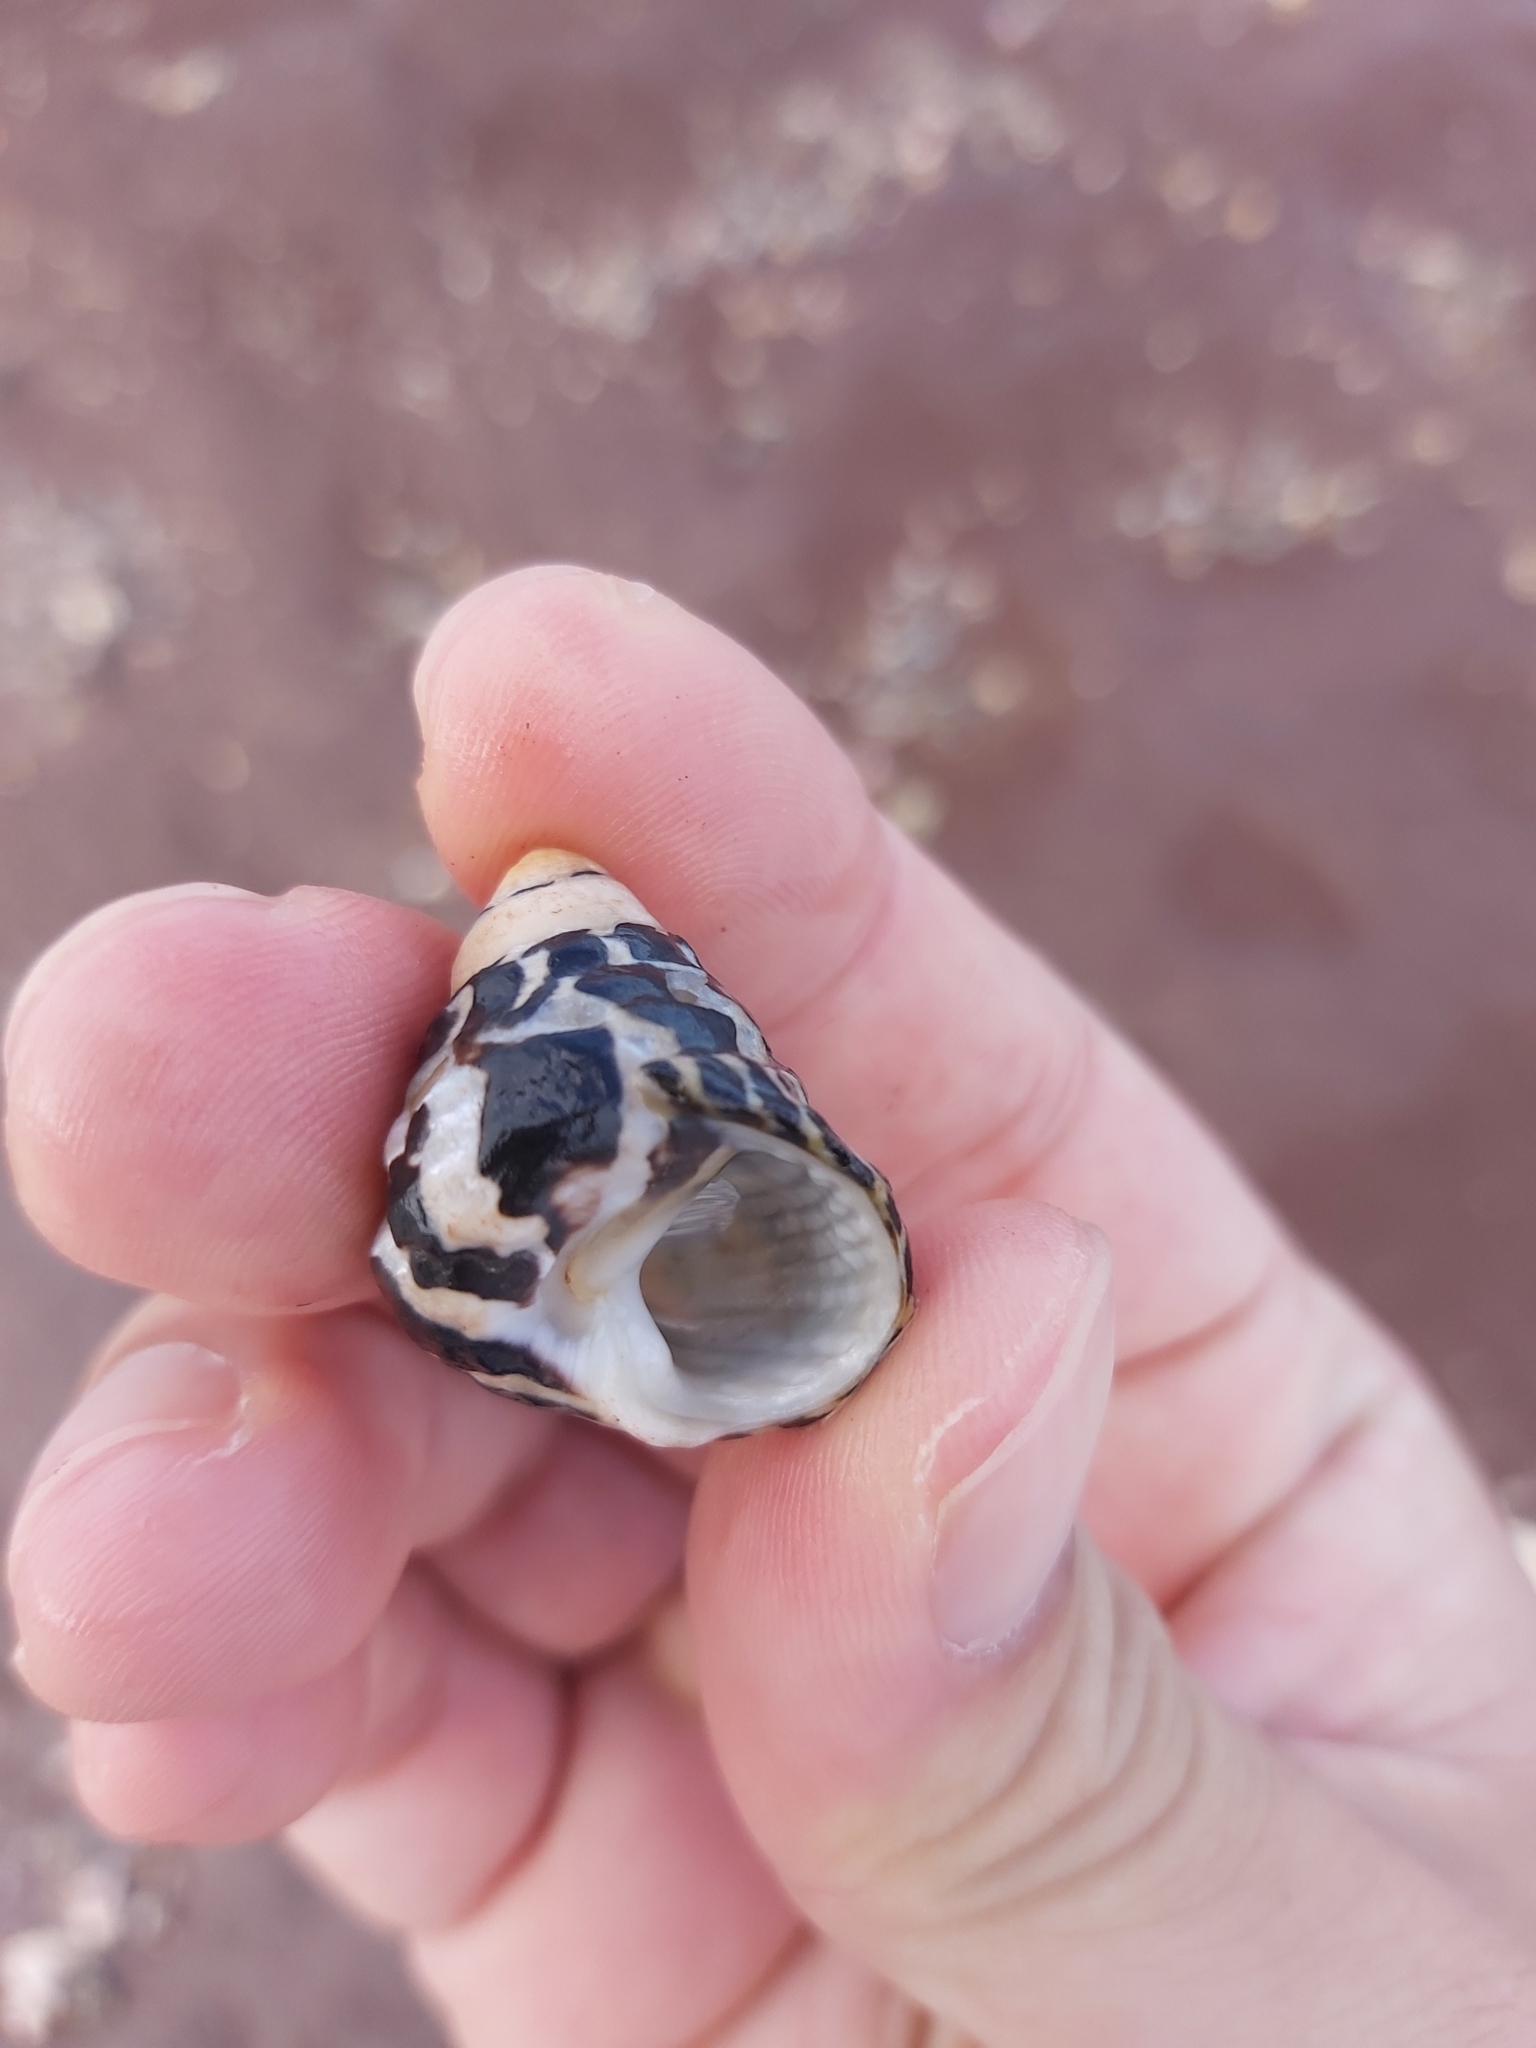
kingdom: Animalia
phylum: Mollusca
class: Gastropoda
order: Trochida
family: Trochidae
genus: Austrocochlea
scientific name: Austrocochlea porcata
